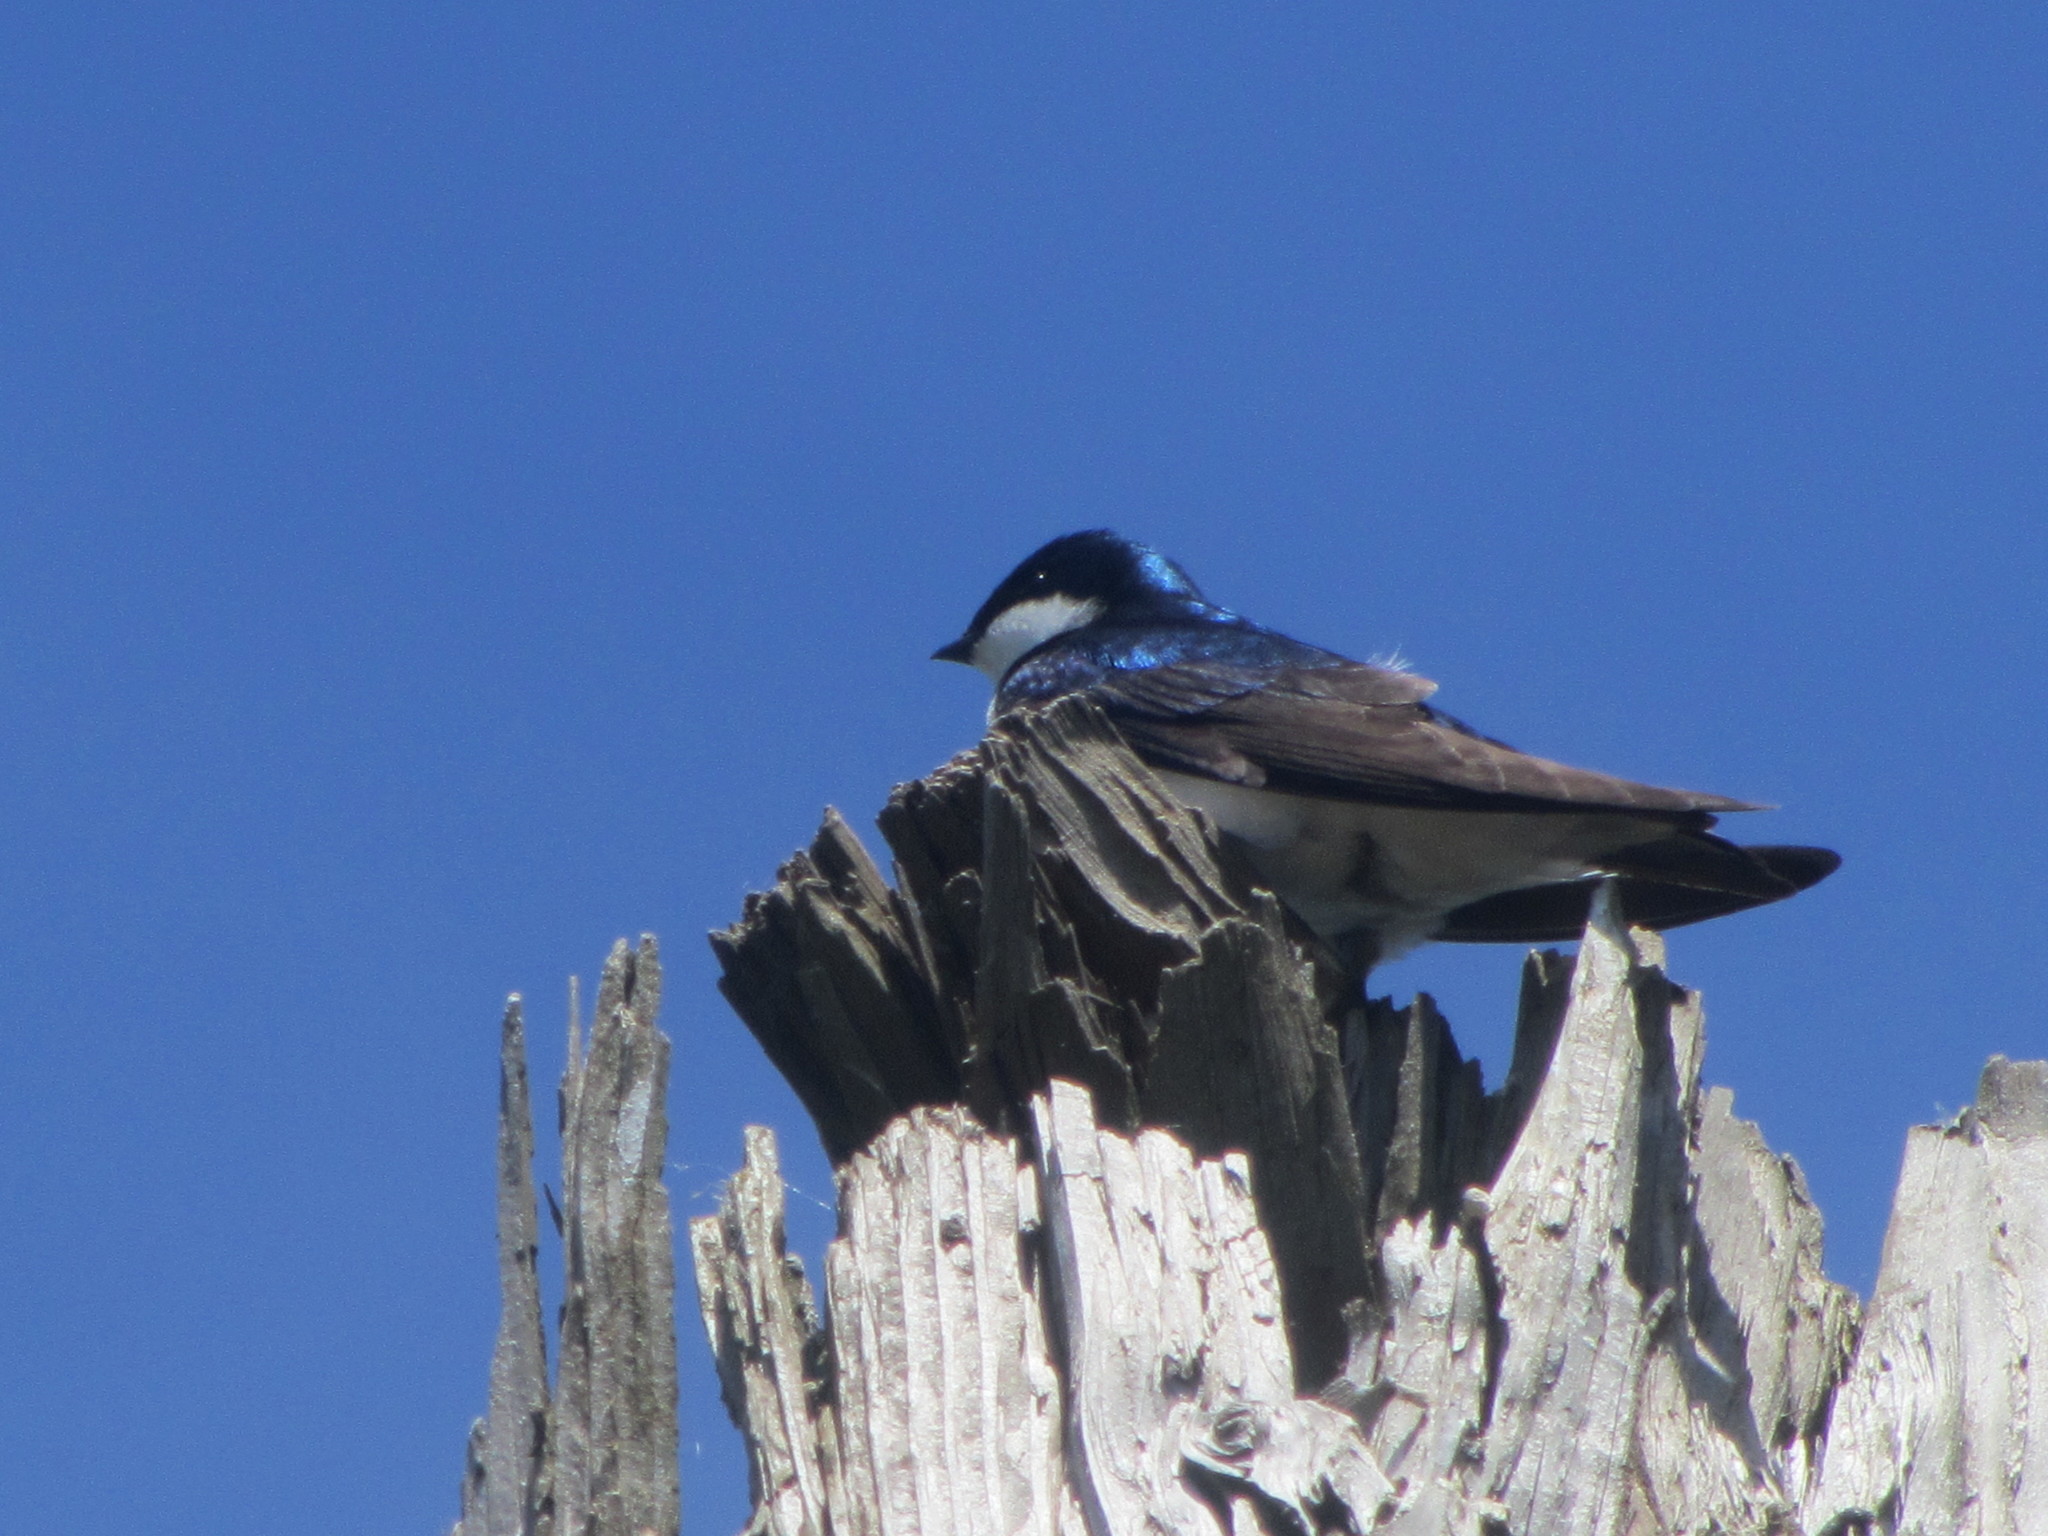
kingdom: Animalia
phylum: Chordata
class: Aves
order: Passeriformes
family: Hirundinidae
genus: Tachycineta
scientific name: Tachycineta bicolor
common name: Tree swallow
